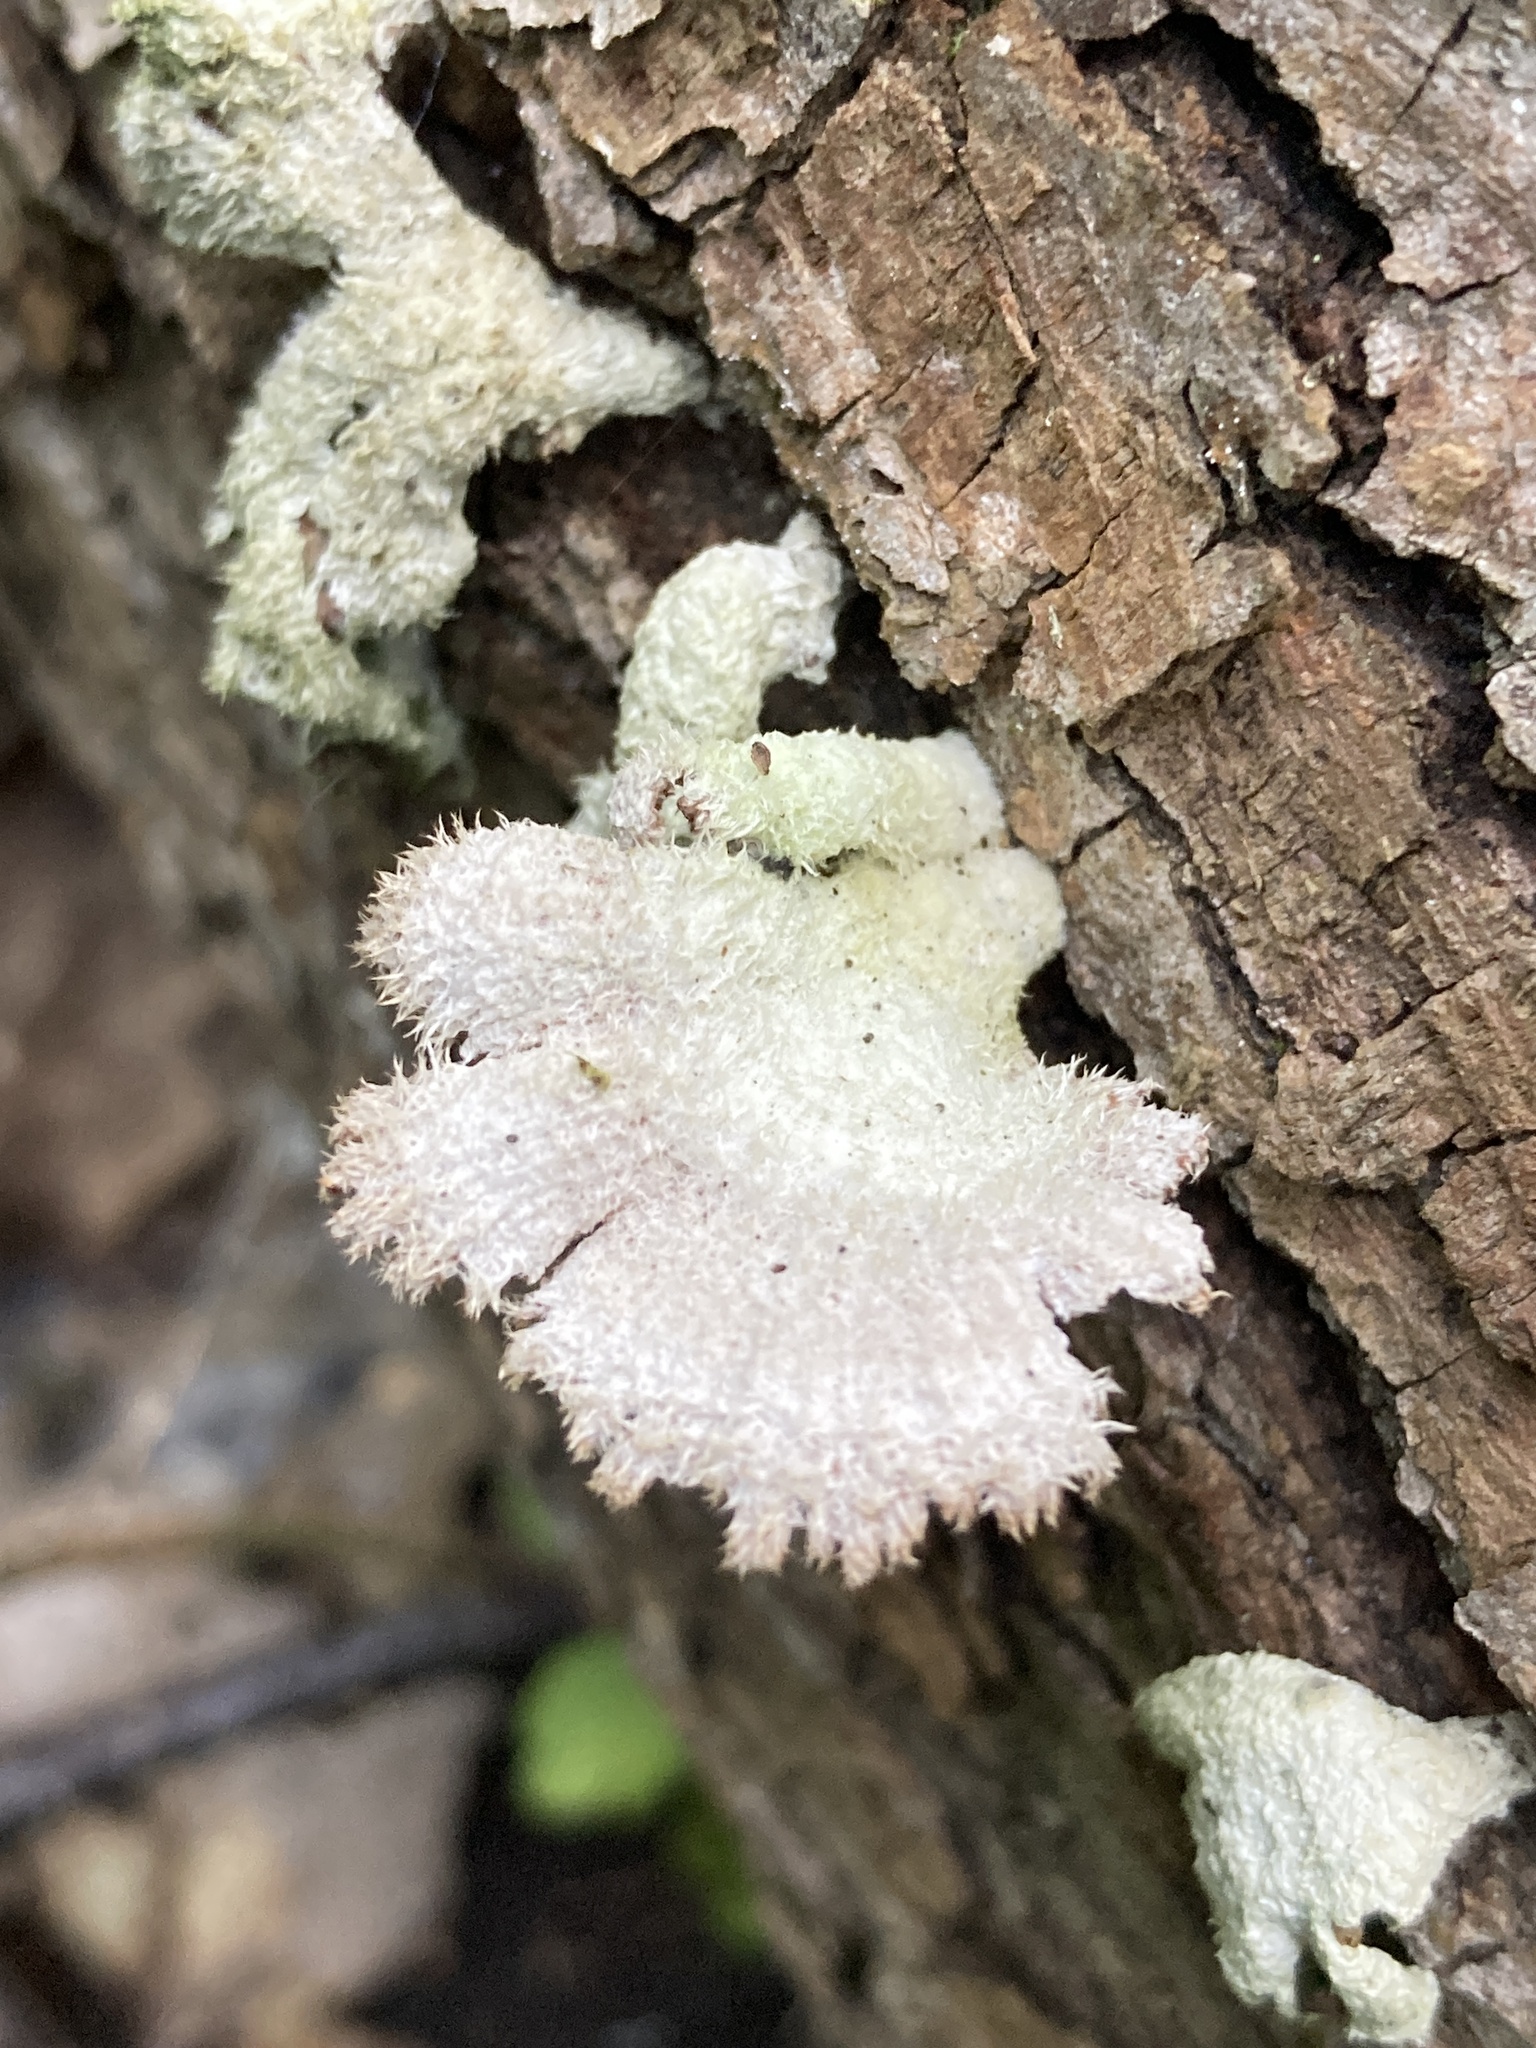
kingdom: Fungi
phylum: Basidiomycota
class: Agaricomycetes
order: Agaricales
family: Schizophyllaceae
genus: Schizophyllum
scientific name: Schizophyllum commune
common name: Common porecrust
